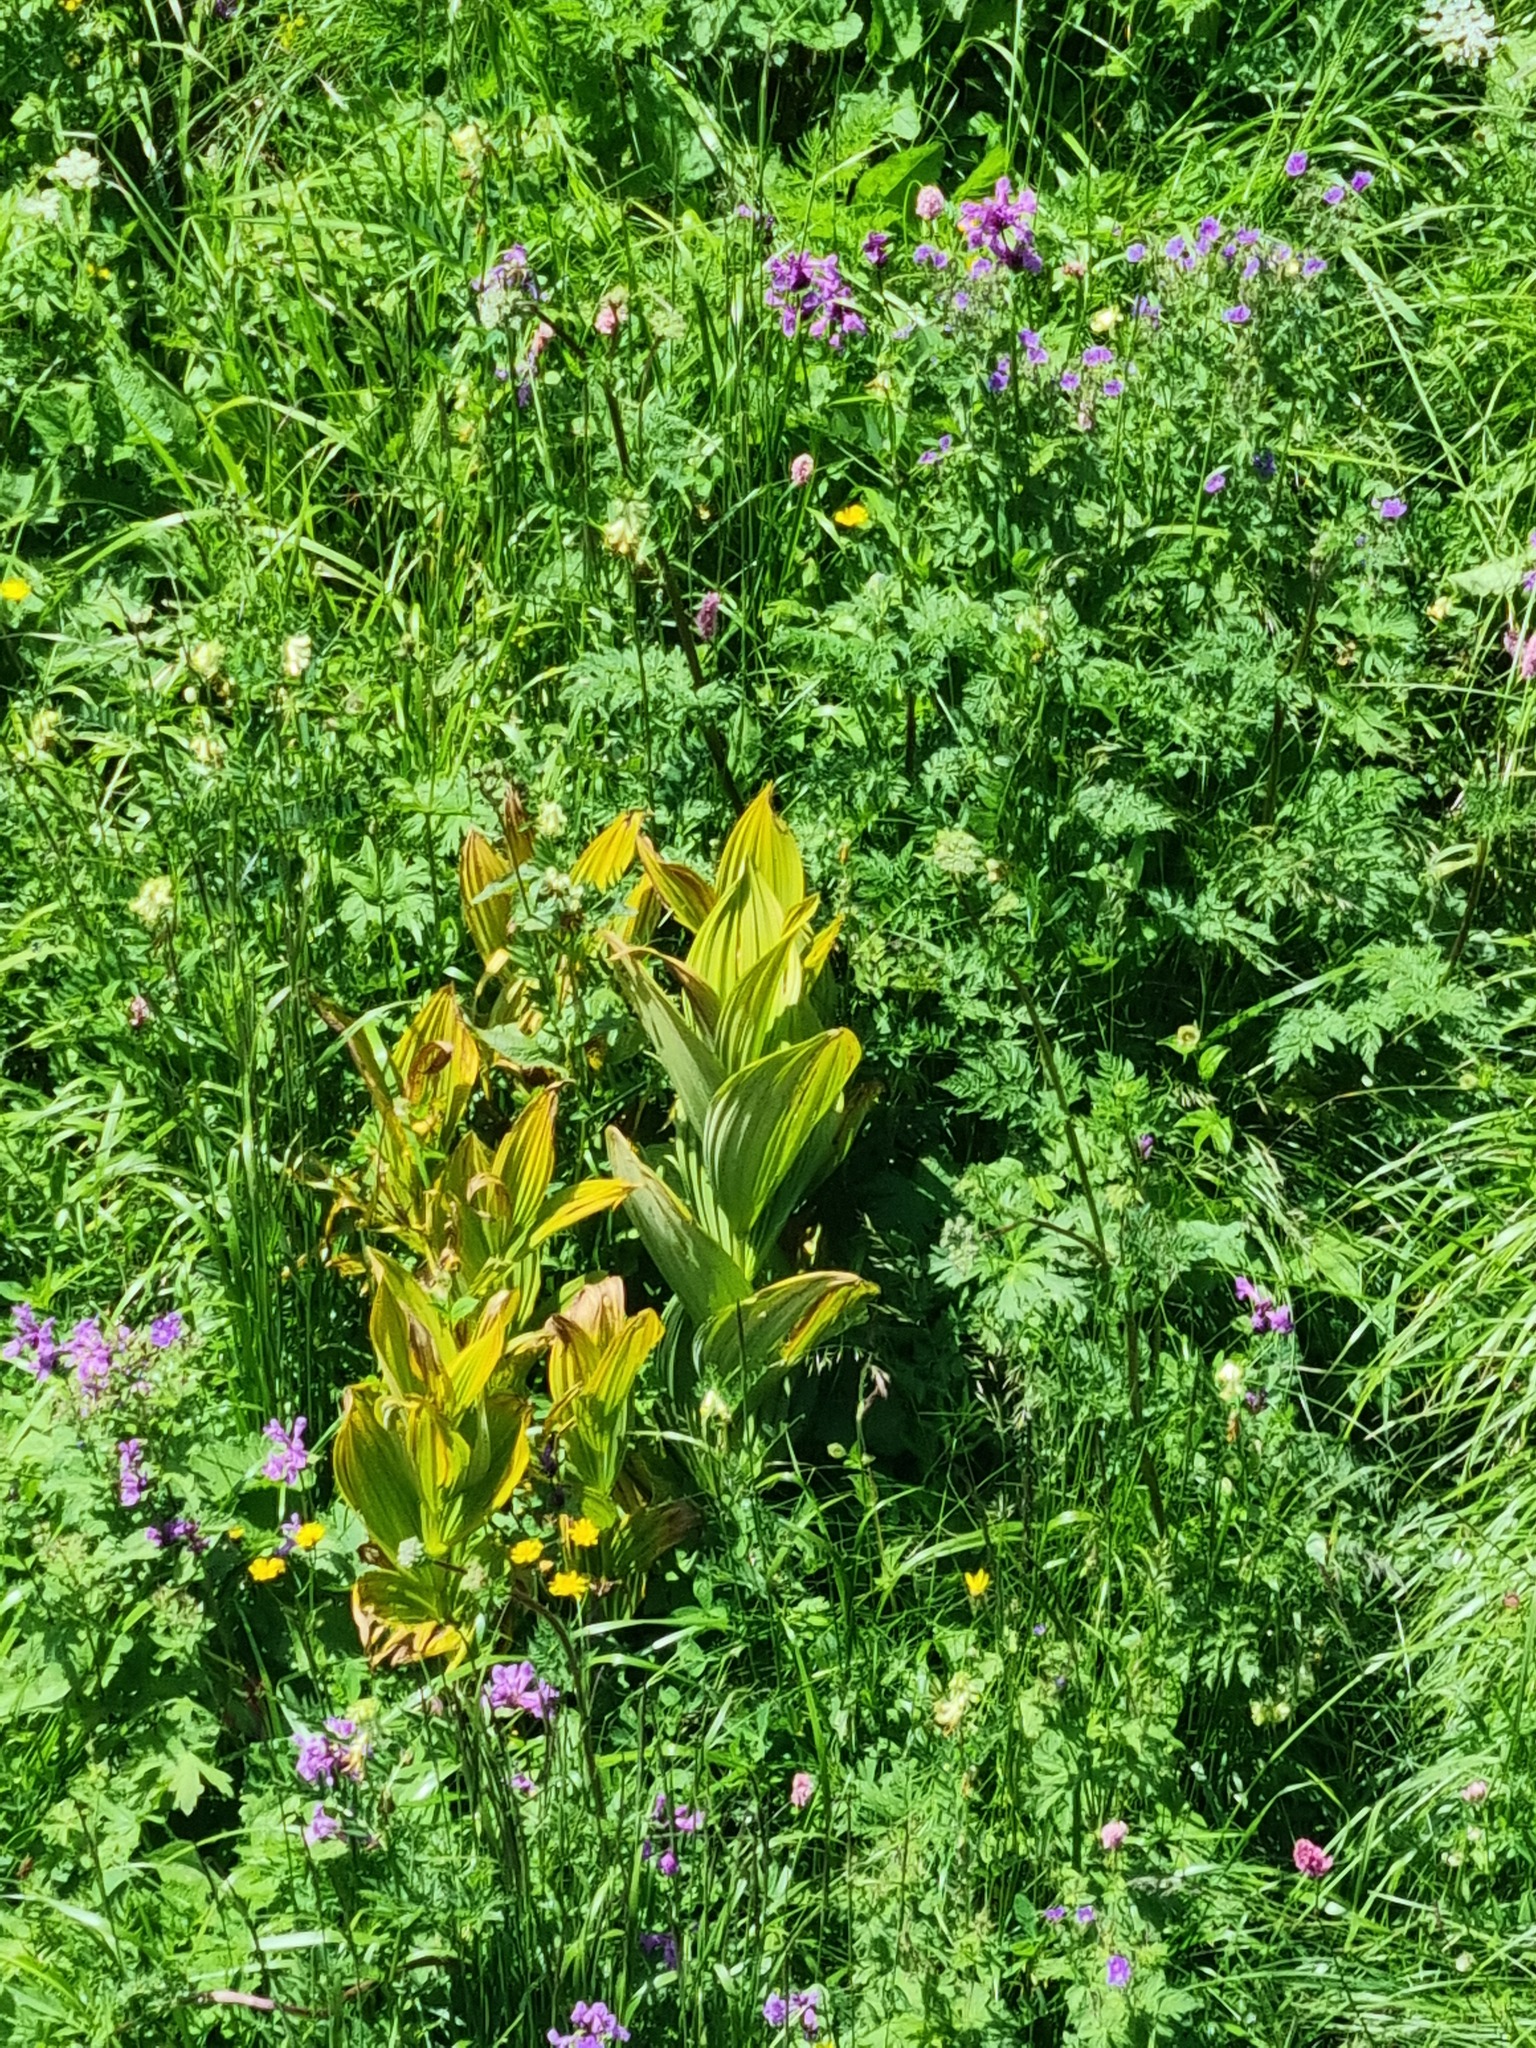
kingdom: Plantae
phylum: Tracheophyta
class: Liliopsida
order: Liliales
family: Melanthiaceae
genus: Veratrum
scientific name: Veratrum lobelianum
